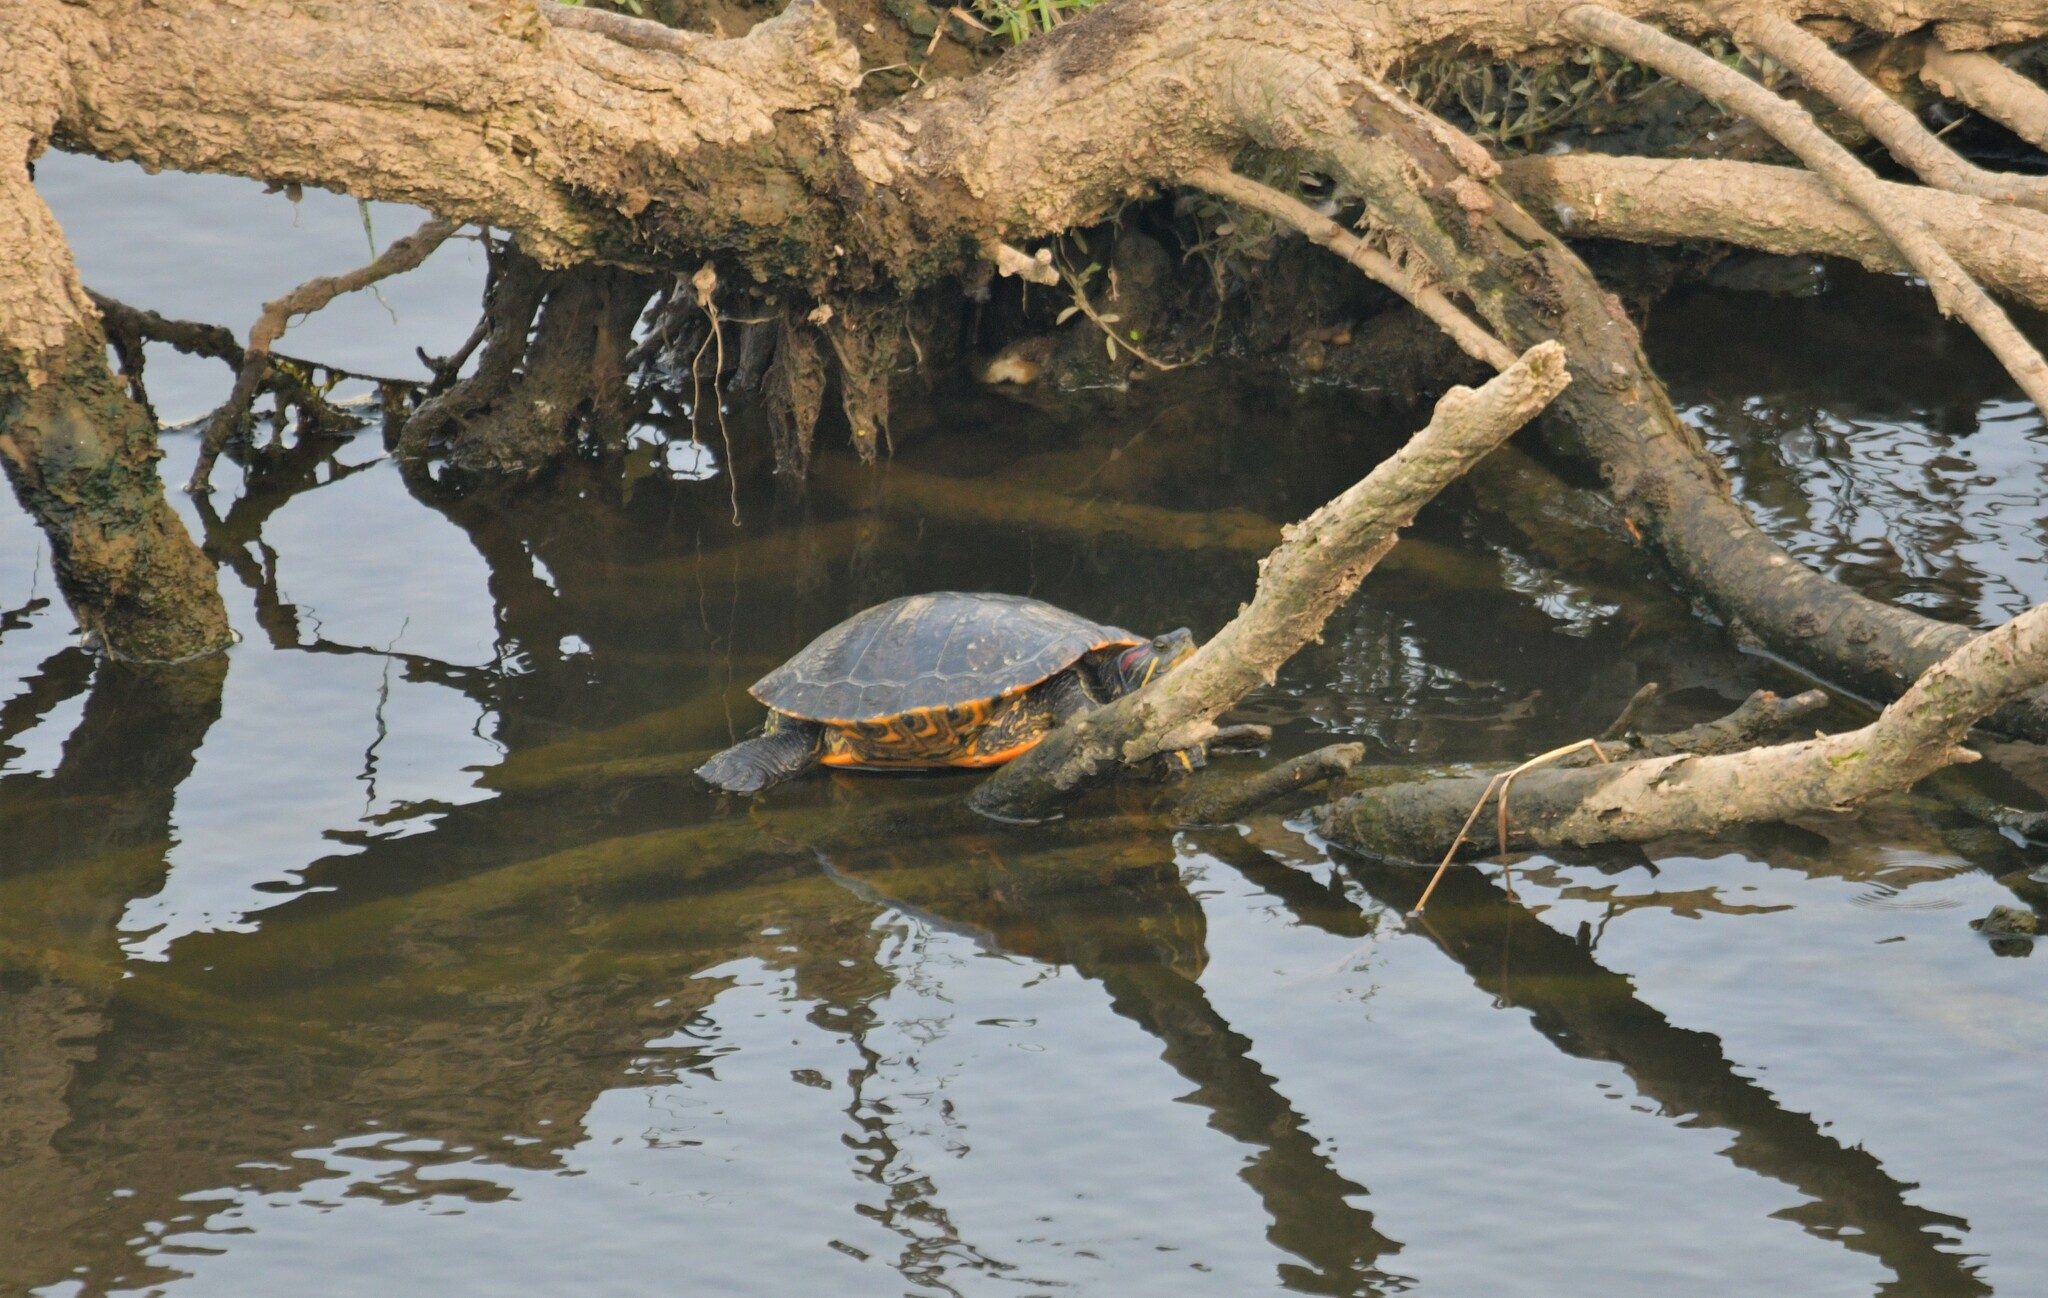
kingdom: Animalia
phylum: Chordata
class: Testudines
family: Emydidae
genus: Trachemys
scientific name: Trachemys scripta
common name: Slider
